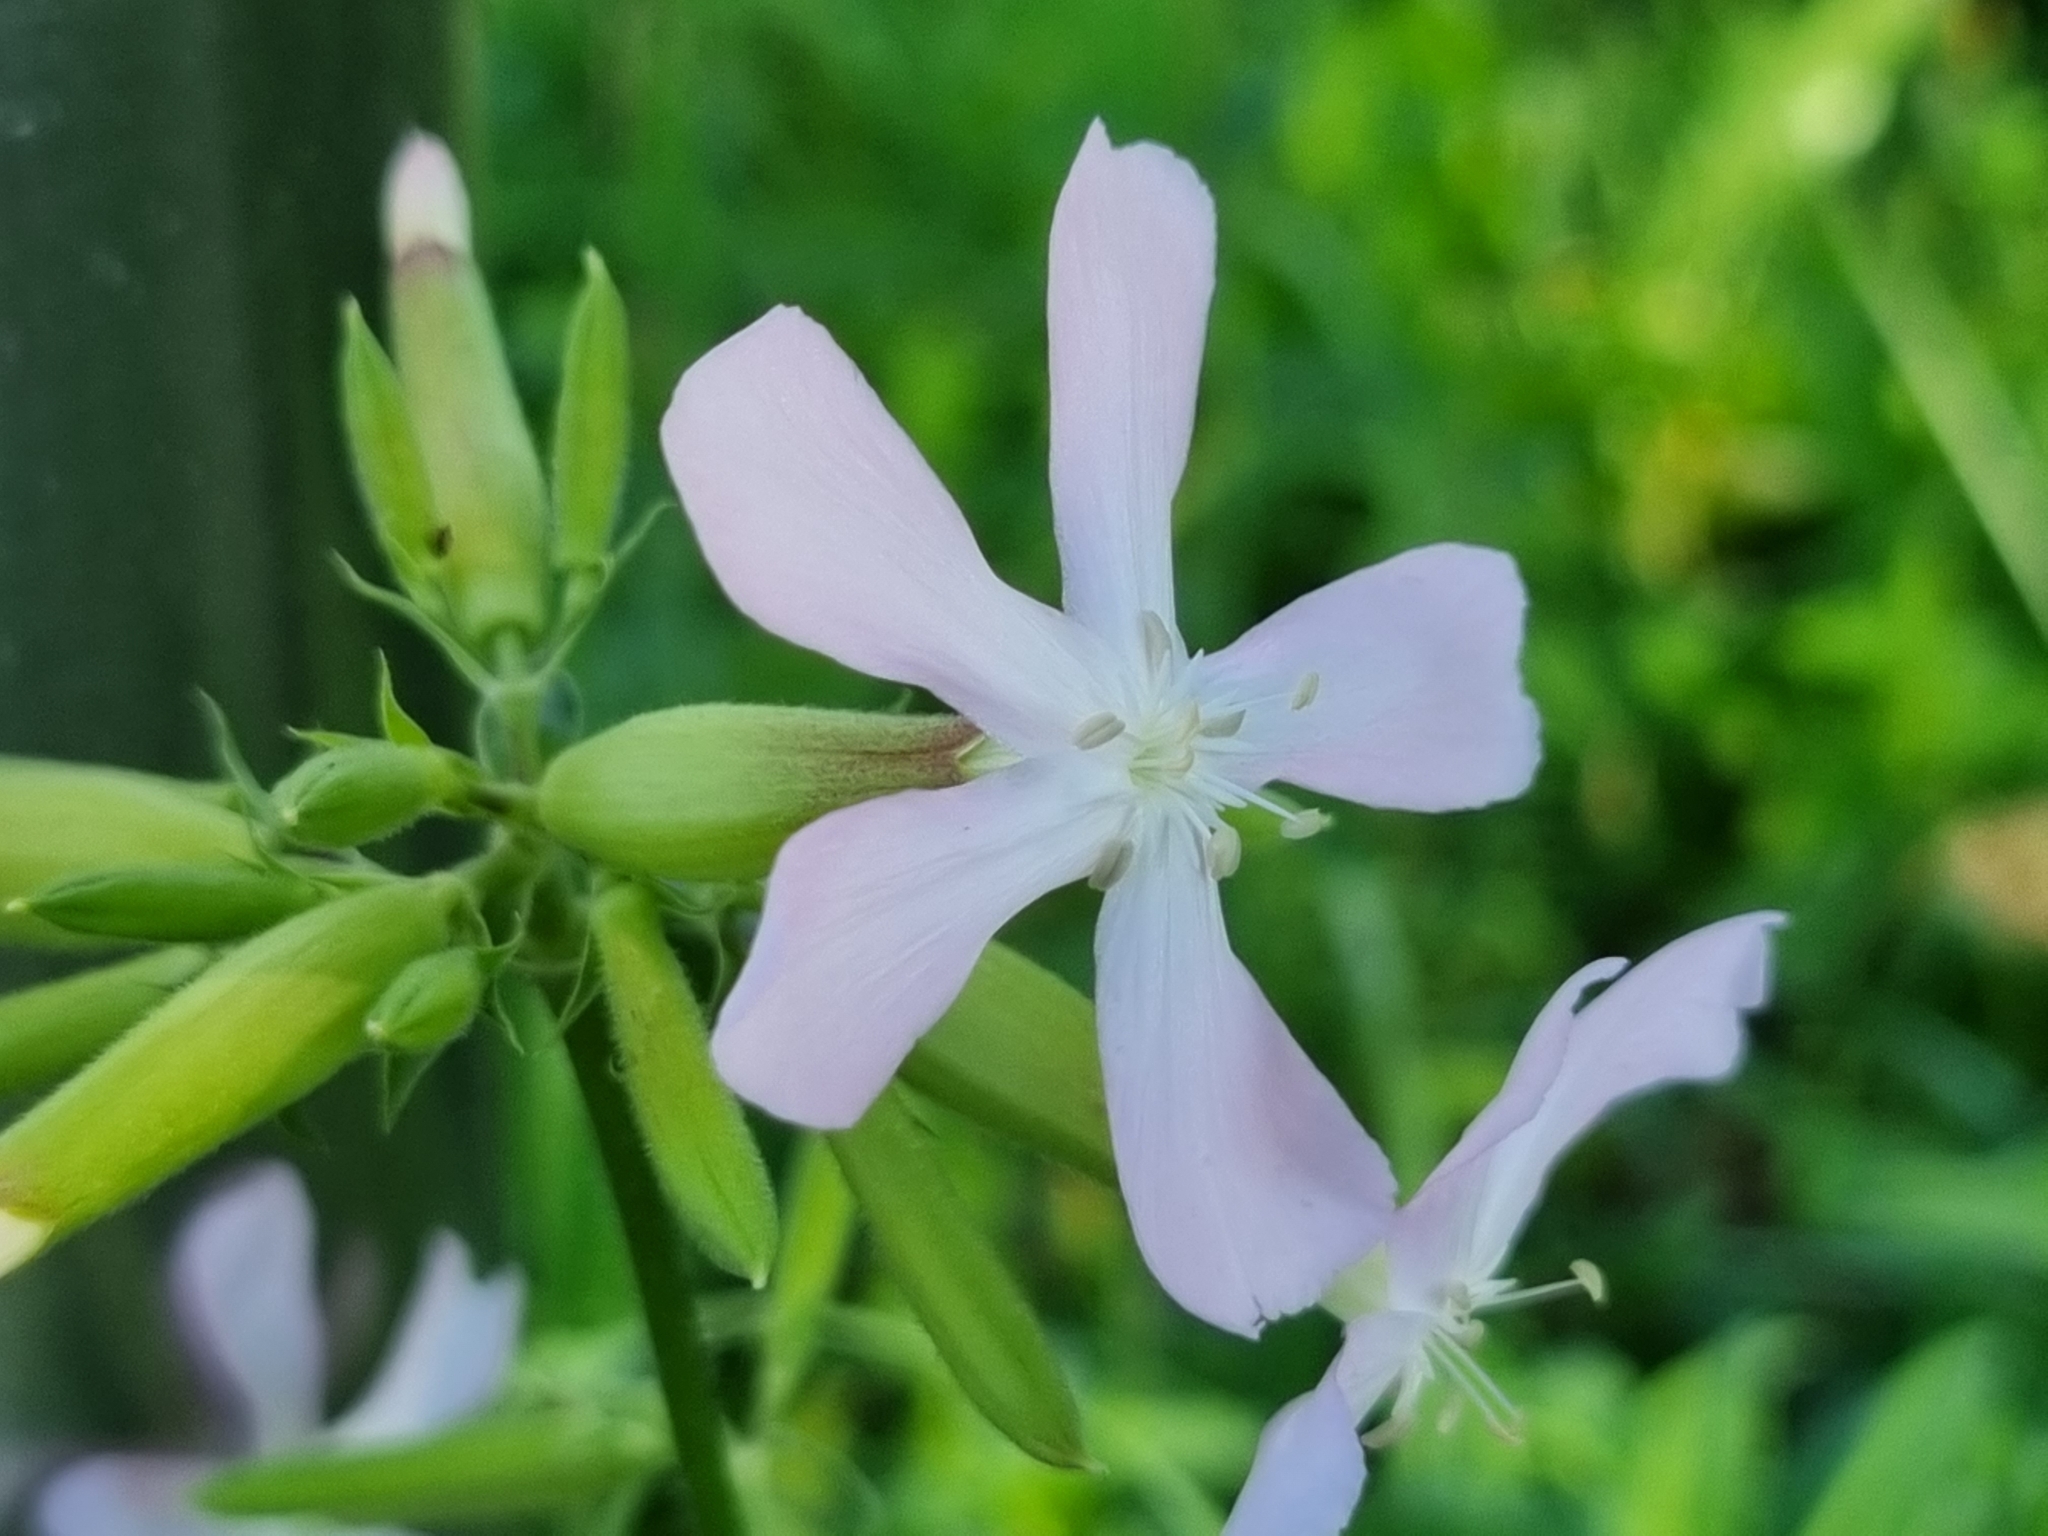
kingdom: Plantae
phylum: Tracheophyta
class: Magnoliopsida
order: Caryophyllales
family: Caryophyllaceae
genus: Saponaria
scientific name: Saponaria officinalis
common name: Soapwort
